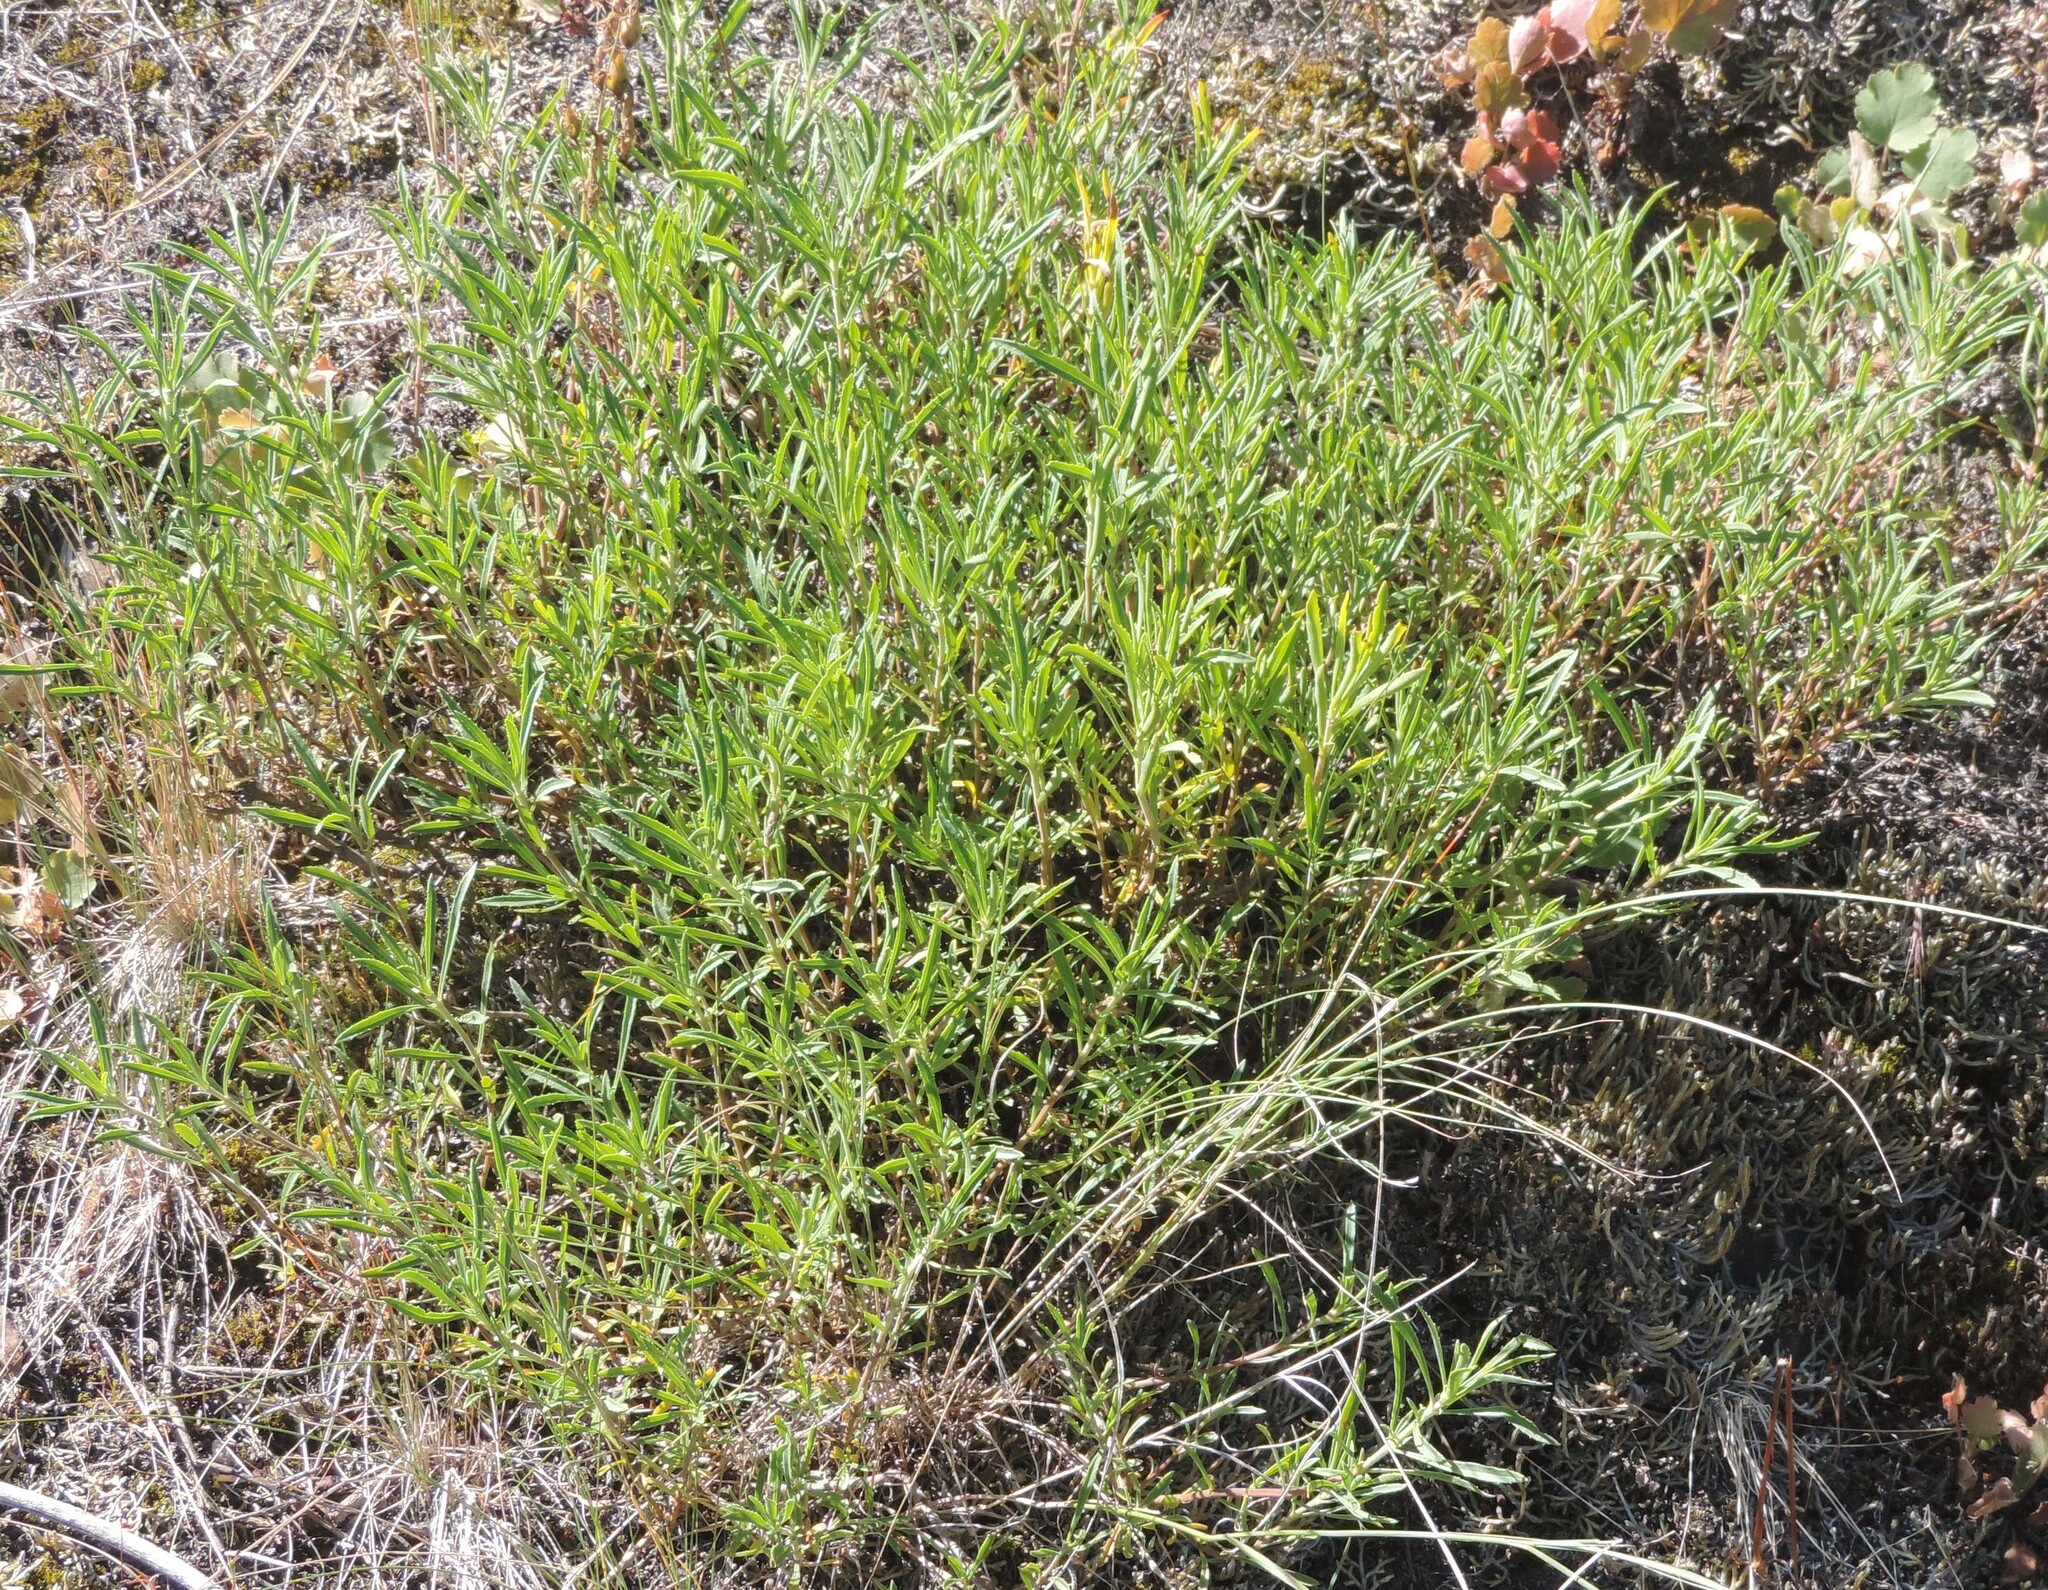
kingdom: Plantae
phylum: Tracheophyta
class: Magnoliopsida
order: Lamiales
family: Plantaginaceae
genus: Penstemon
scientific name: Penstemon fruticosus
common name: Bush penstemon
